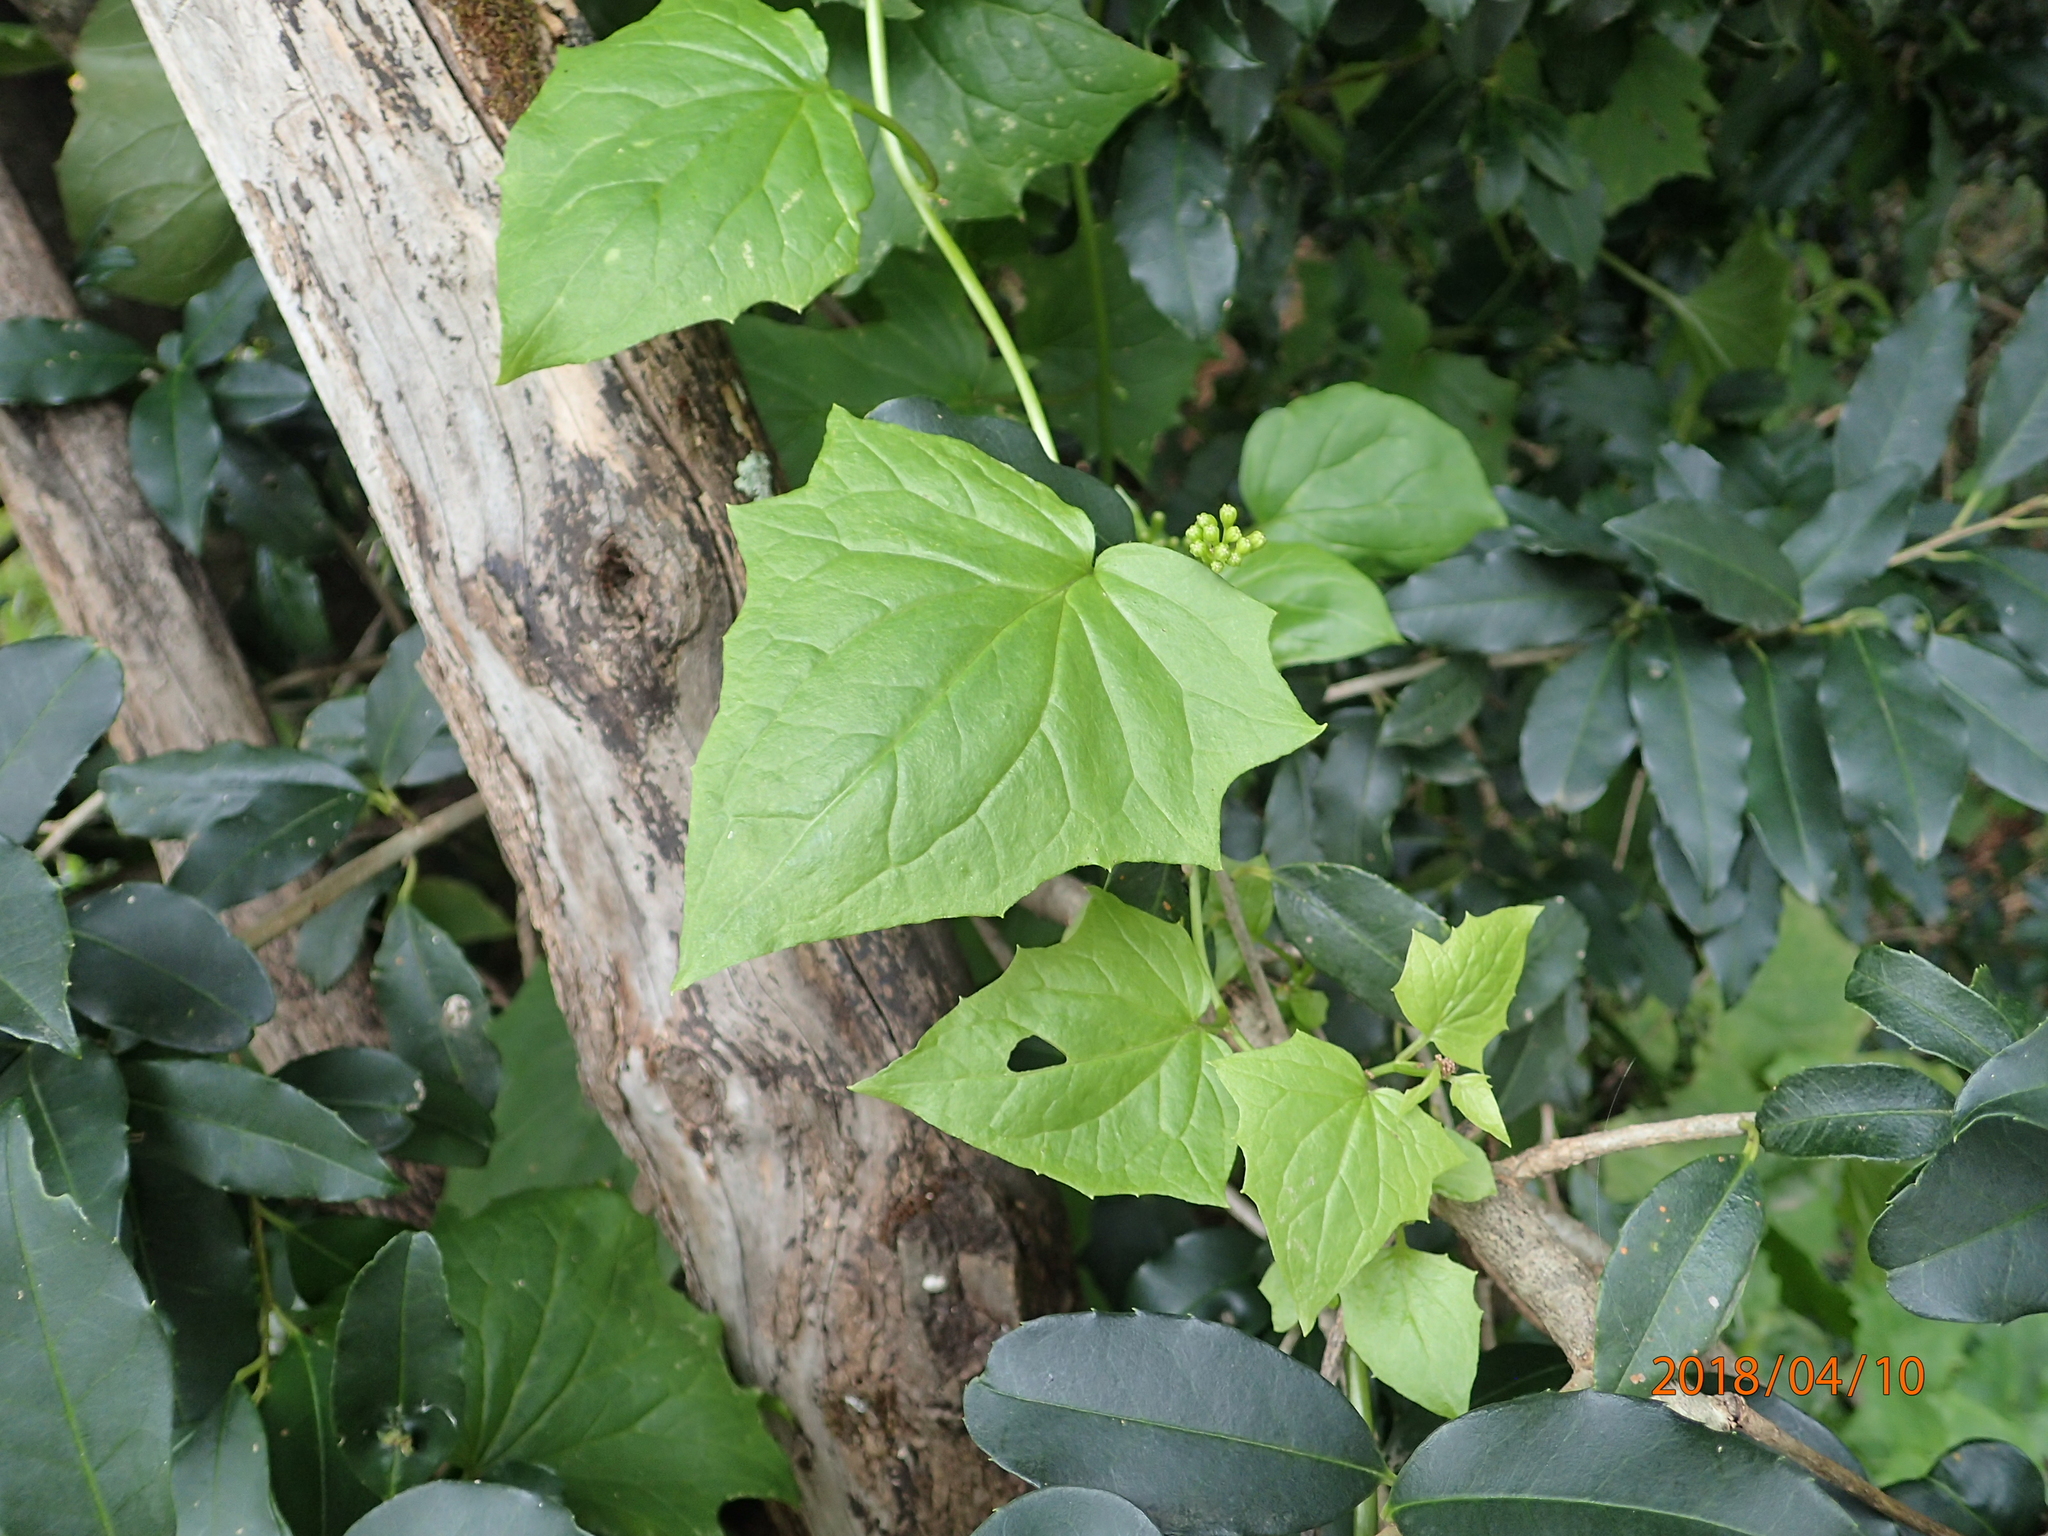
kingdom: Plantae
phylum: Tracheophyta
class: Magnoliopsida
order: Asterales
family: Asteraceae
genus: Senecio
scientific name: Senecio tamoides
